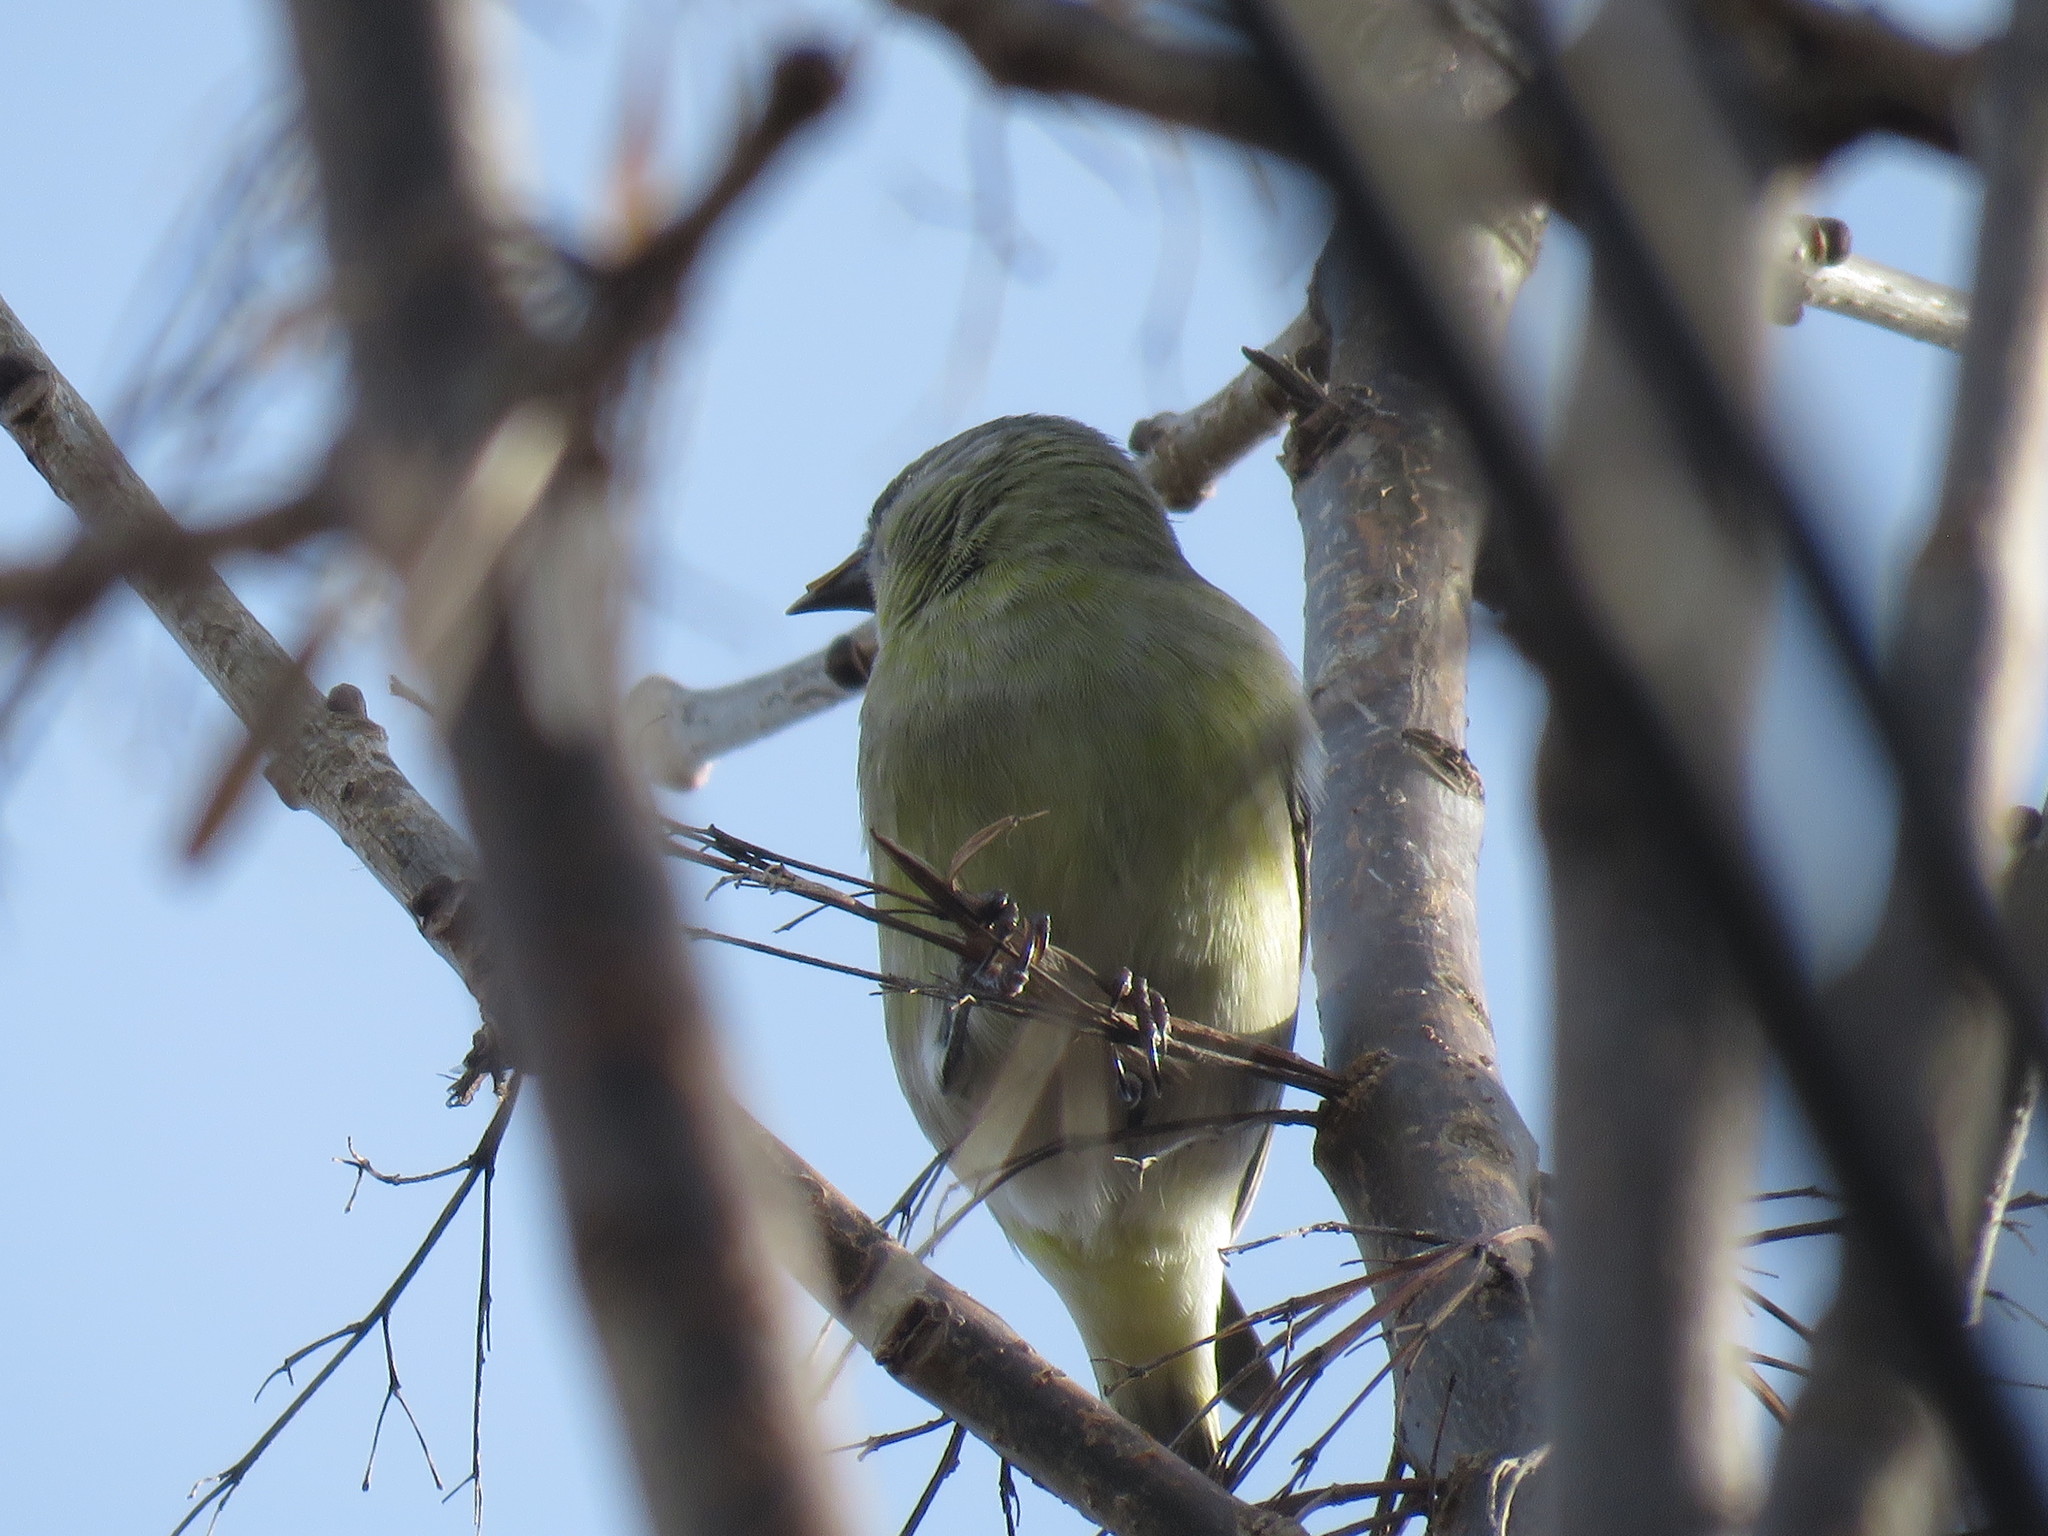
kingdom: Animalia
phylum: Chordata
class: Aves
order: Passeriformes
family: Fringillidae
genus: Spinus
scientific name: Spinus magellanicus
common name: Hooded siskin
